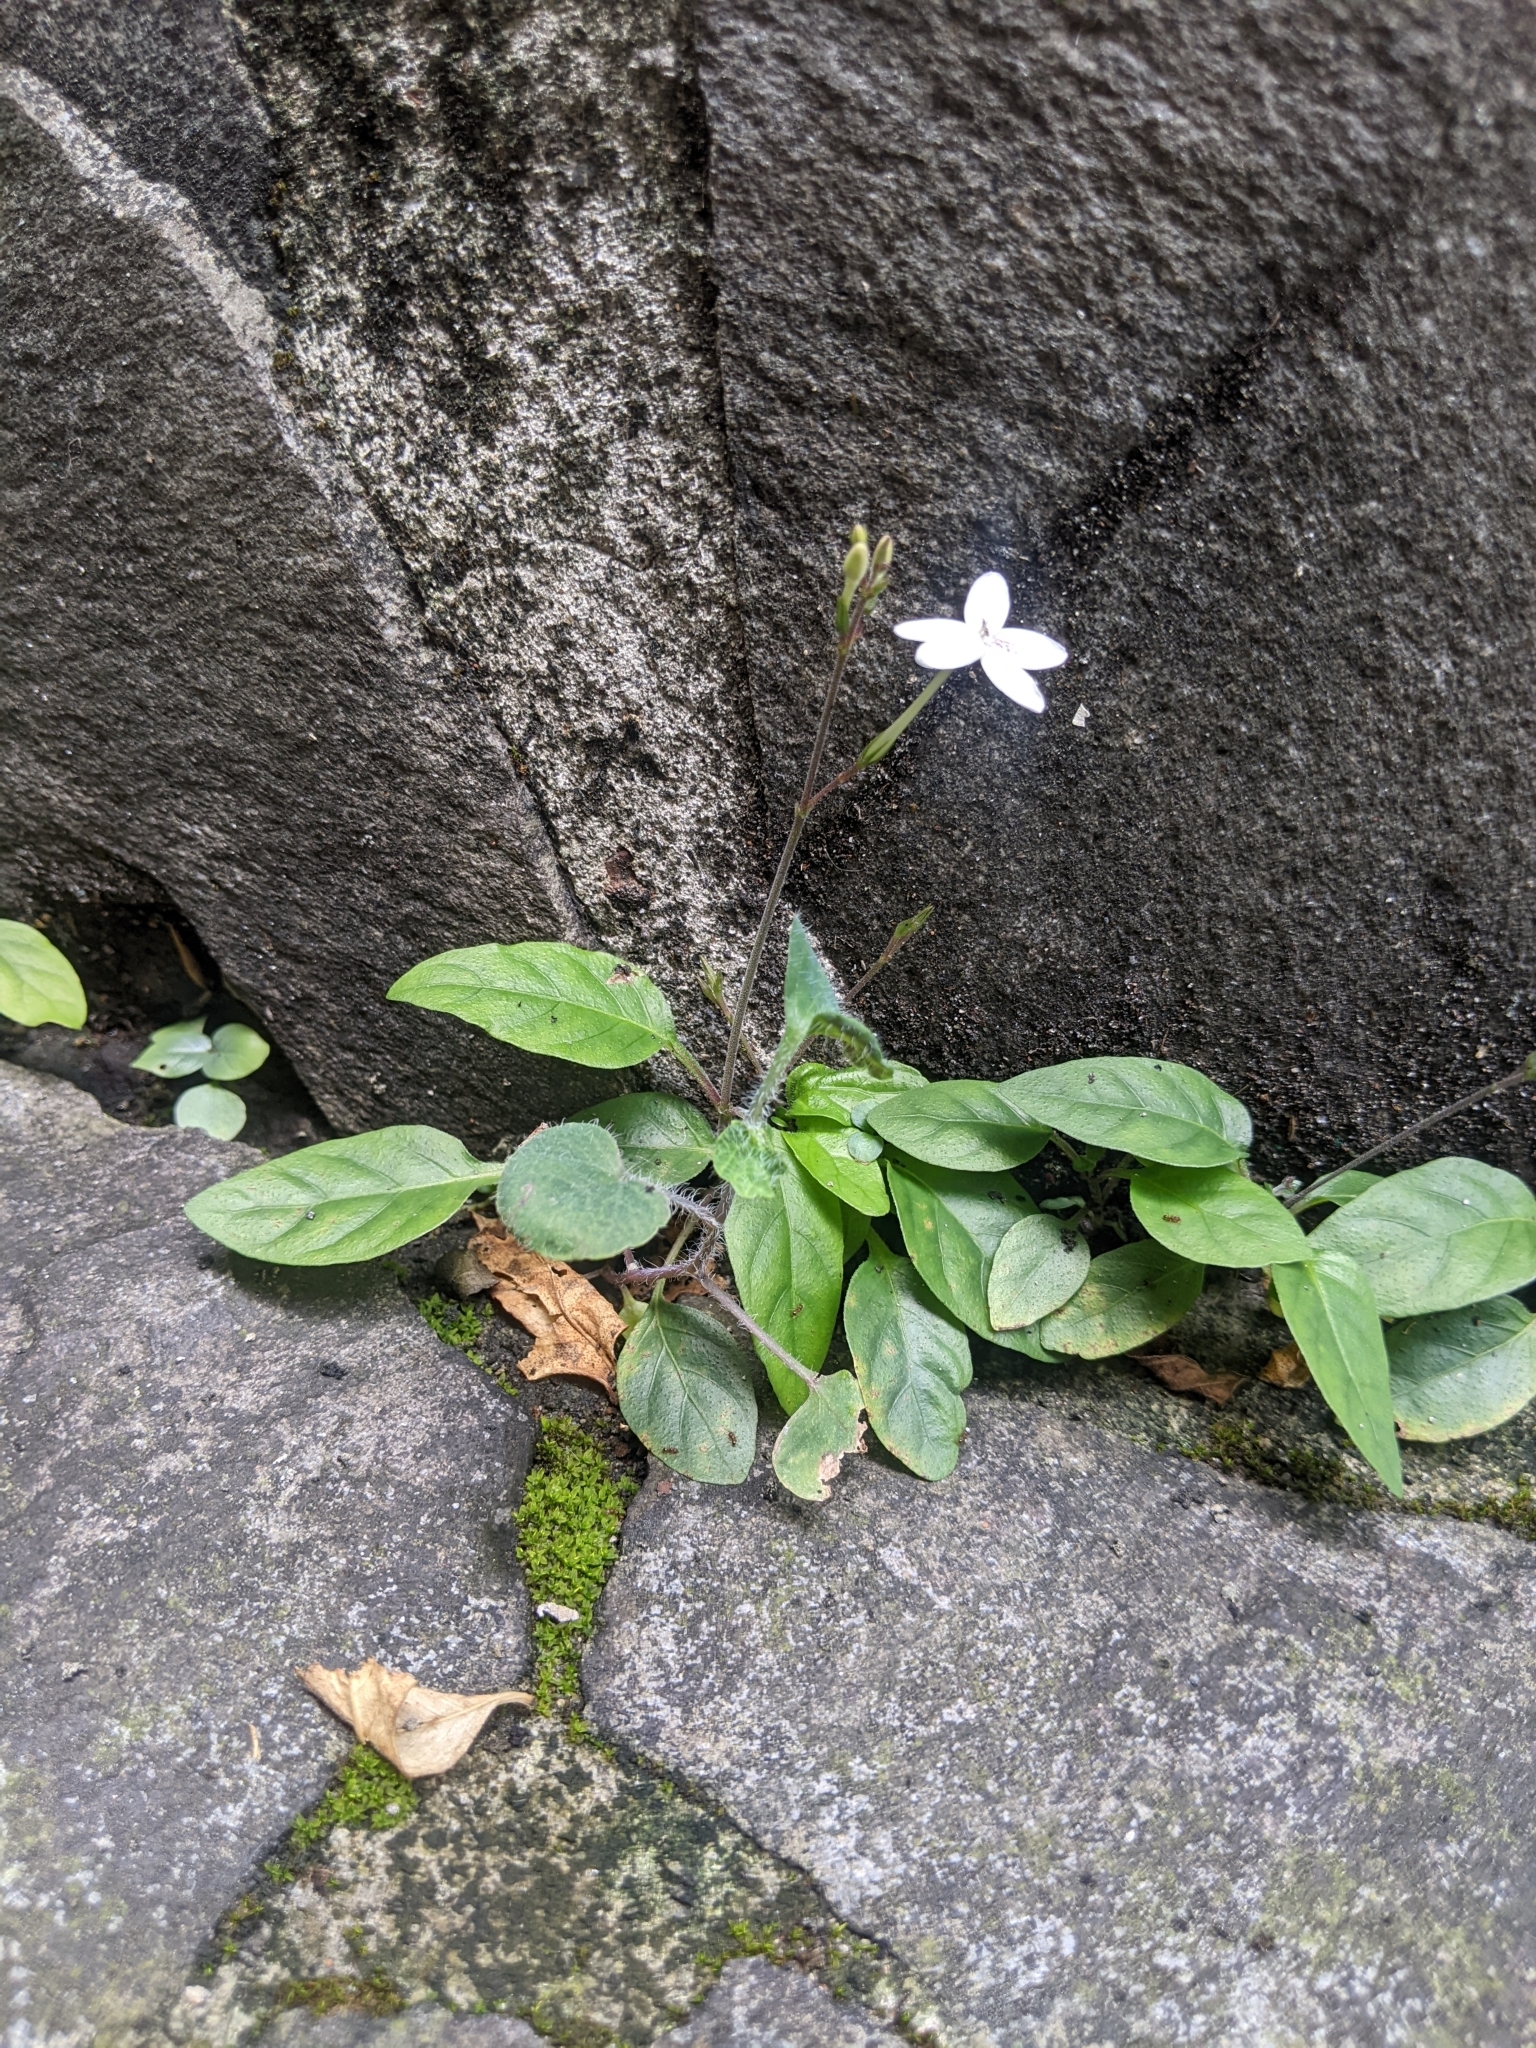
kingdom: Plantae
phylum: Tracheophyta
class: Magnoliopsida
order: Lamiales
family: Acanthaceae
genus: Pseuderanthemum
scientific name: Pseuderanthemum variabile
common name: Night and afternoon
